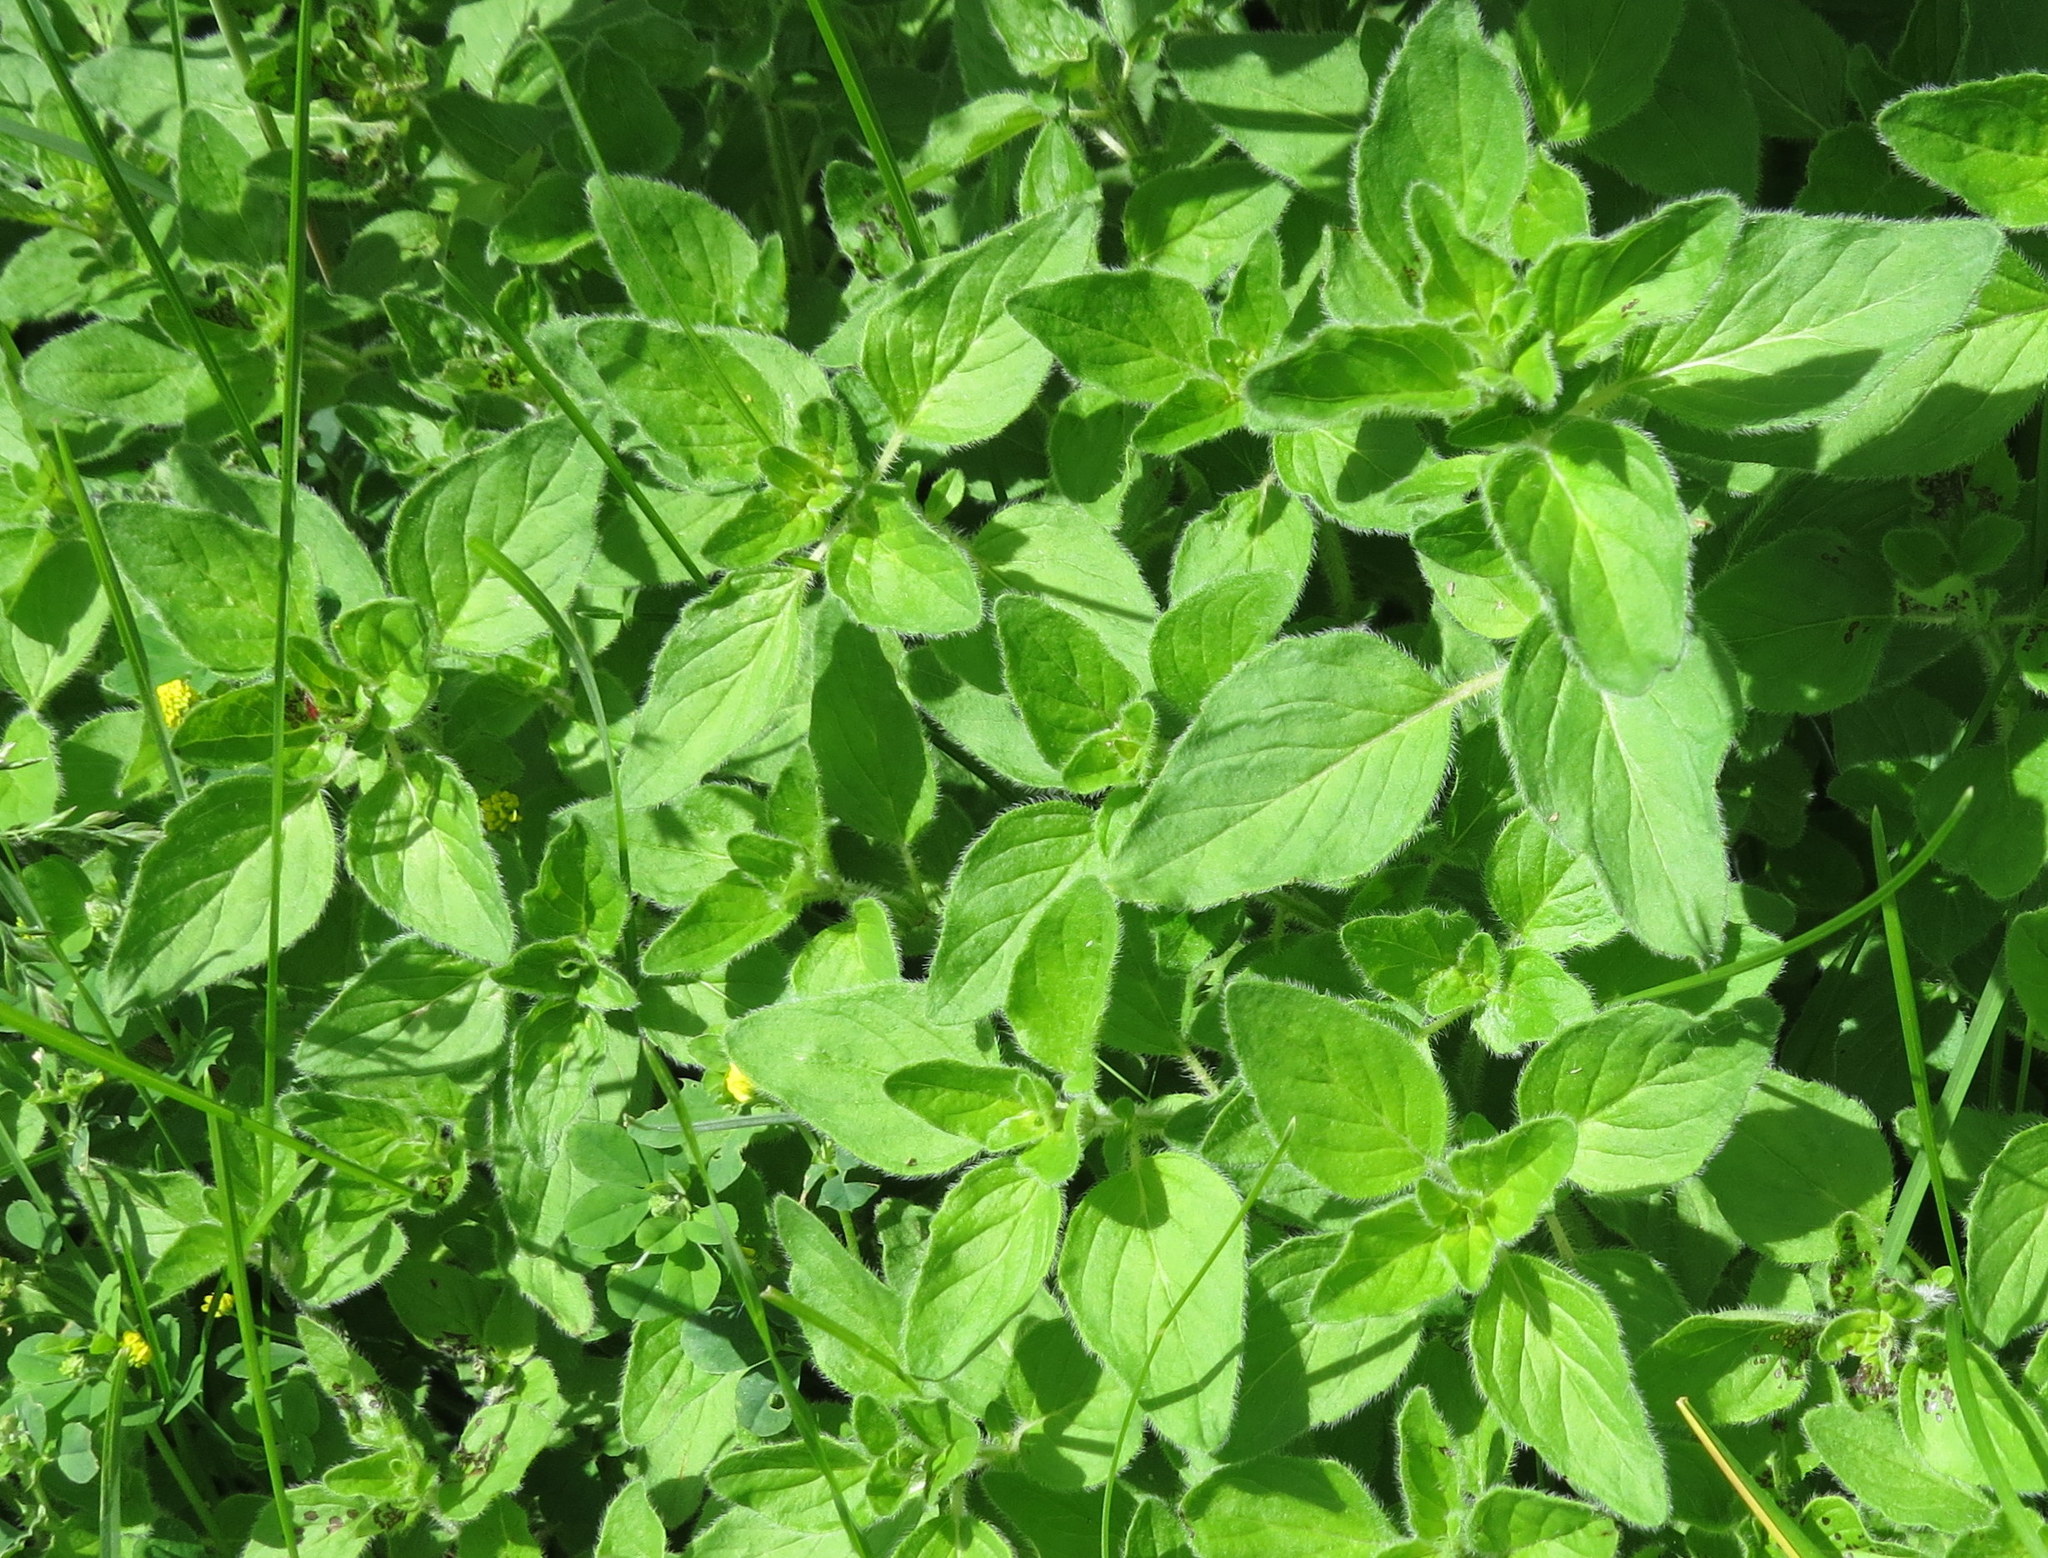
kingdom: Plantae
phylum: Tracheophyta
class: Magnoliopsida
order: Lamiales
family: Lamiaceae
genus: Origanum
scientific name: Origanum vulgare
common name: Wild marjoram
